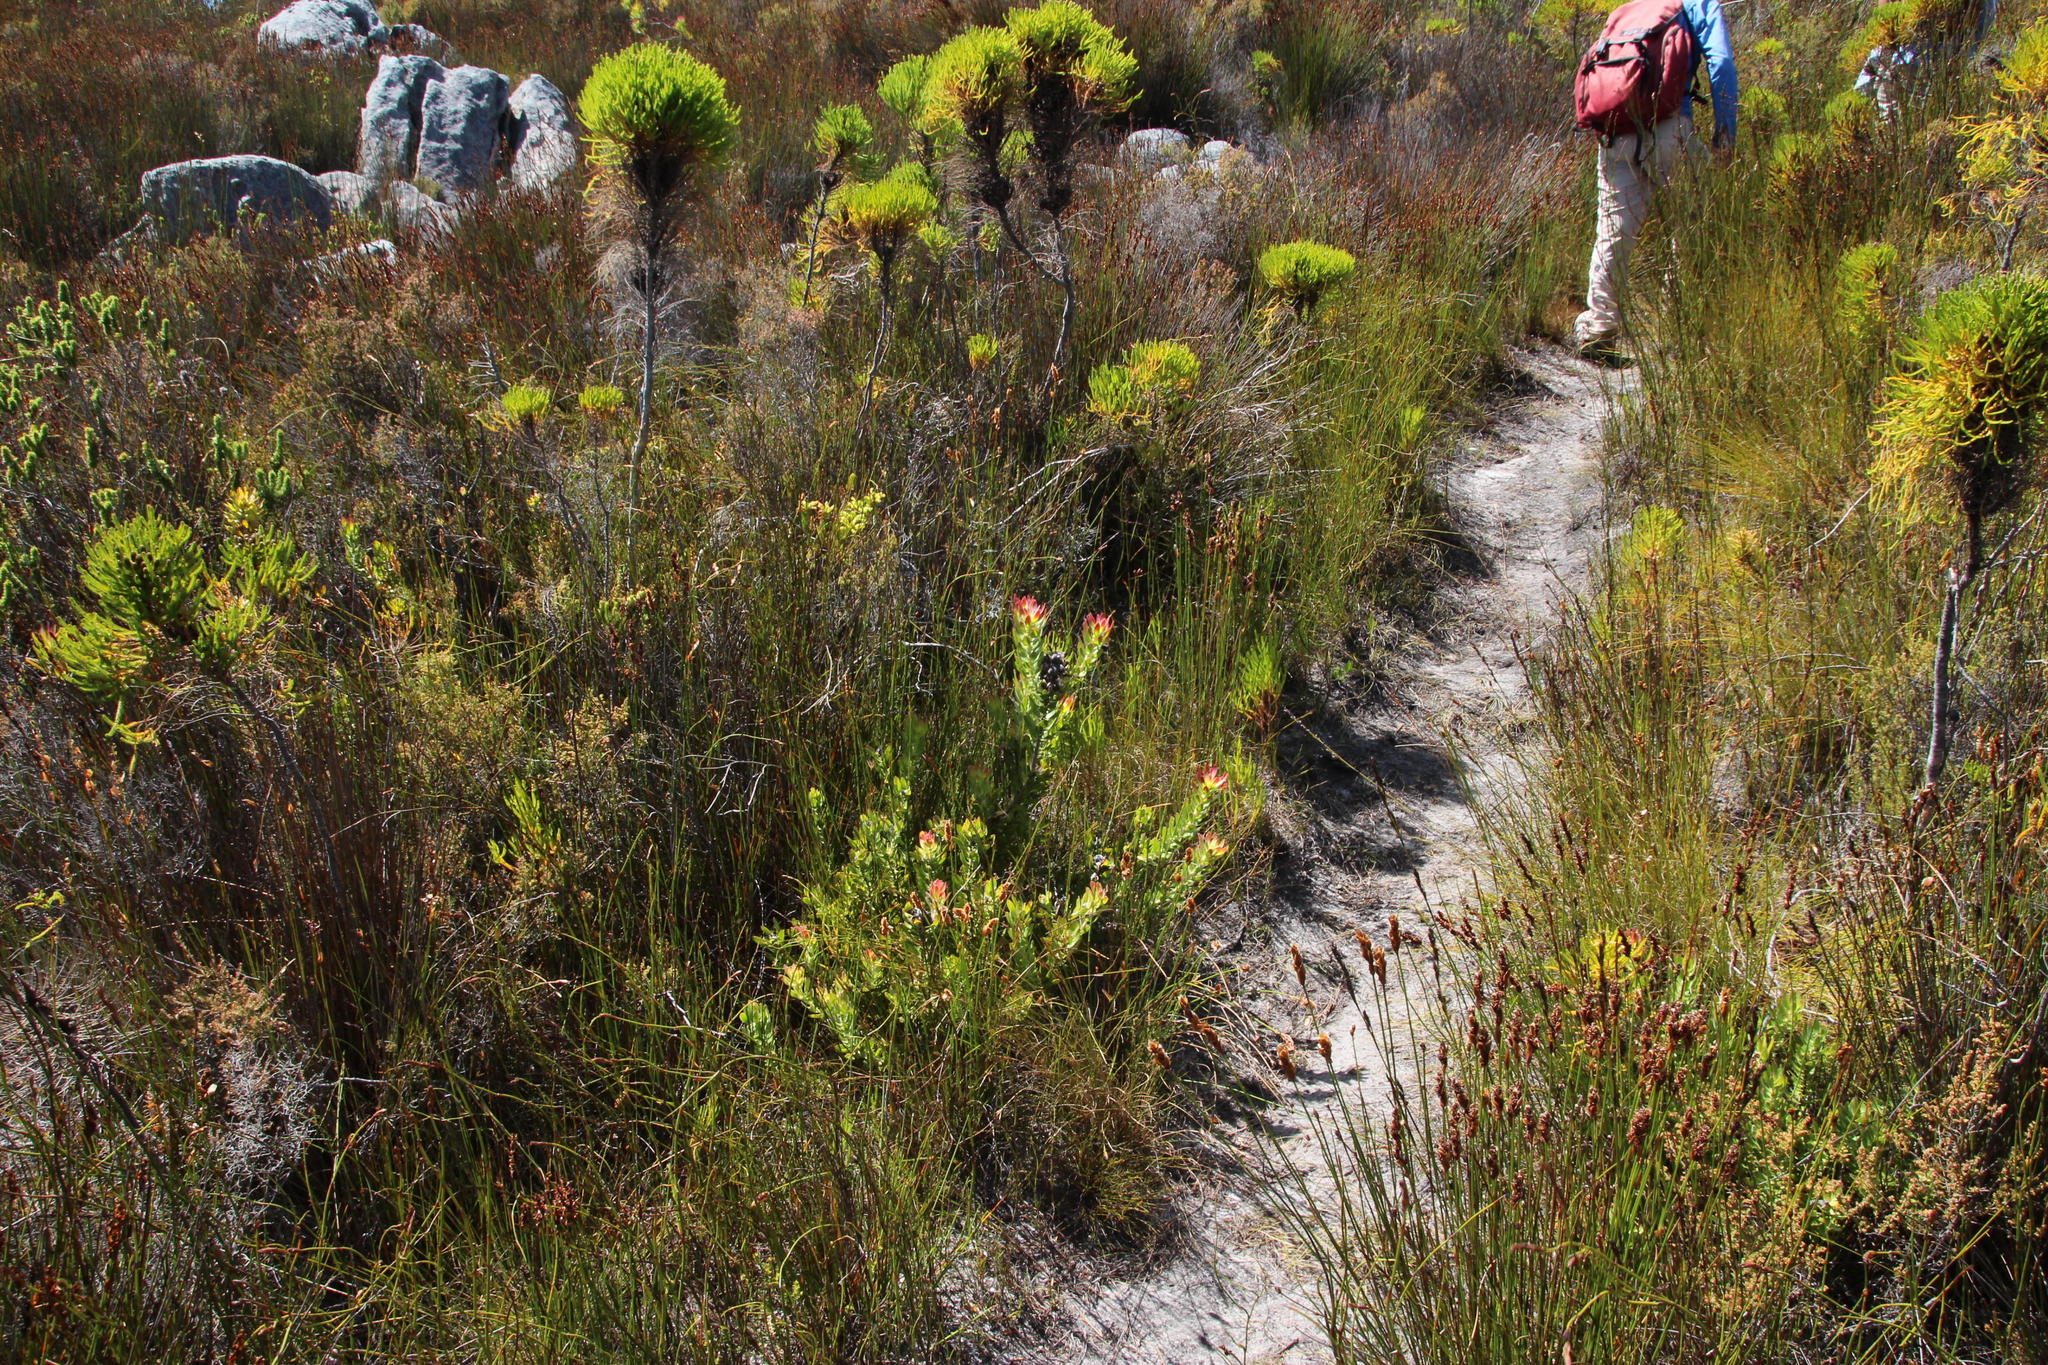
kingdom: Plantae
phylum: Tracheophyta
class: Magnoliopsida
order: Proteales
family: Proteaceae
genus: Mimetes
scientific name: Mimetes cucullatus
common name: Common pagoda
